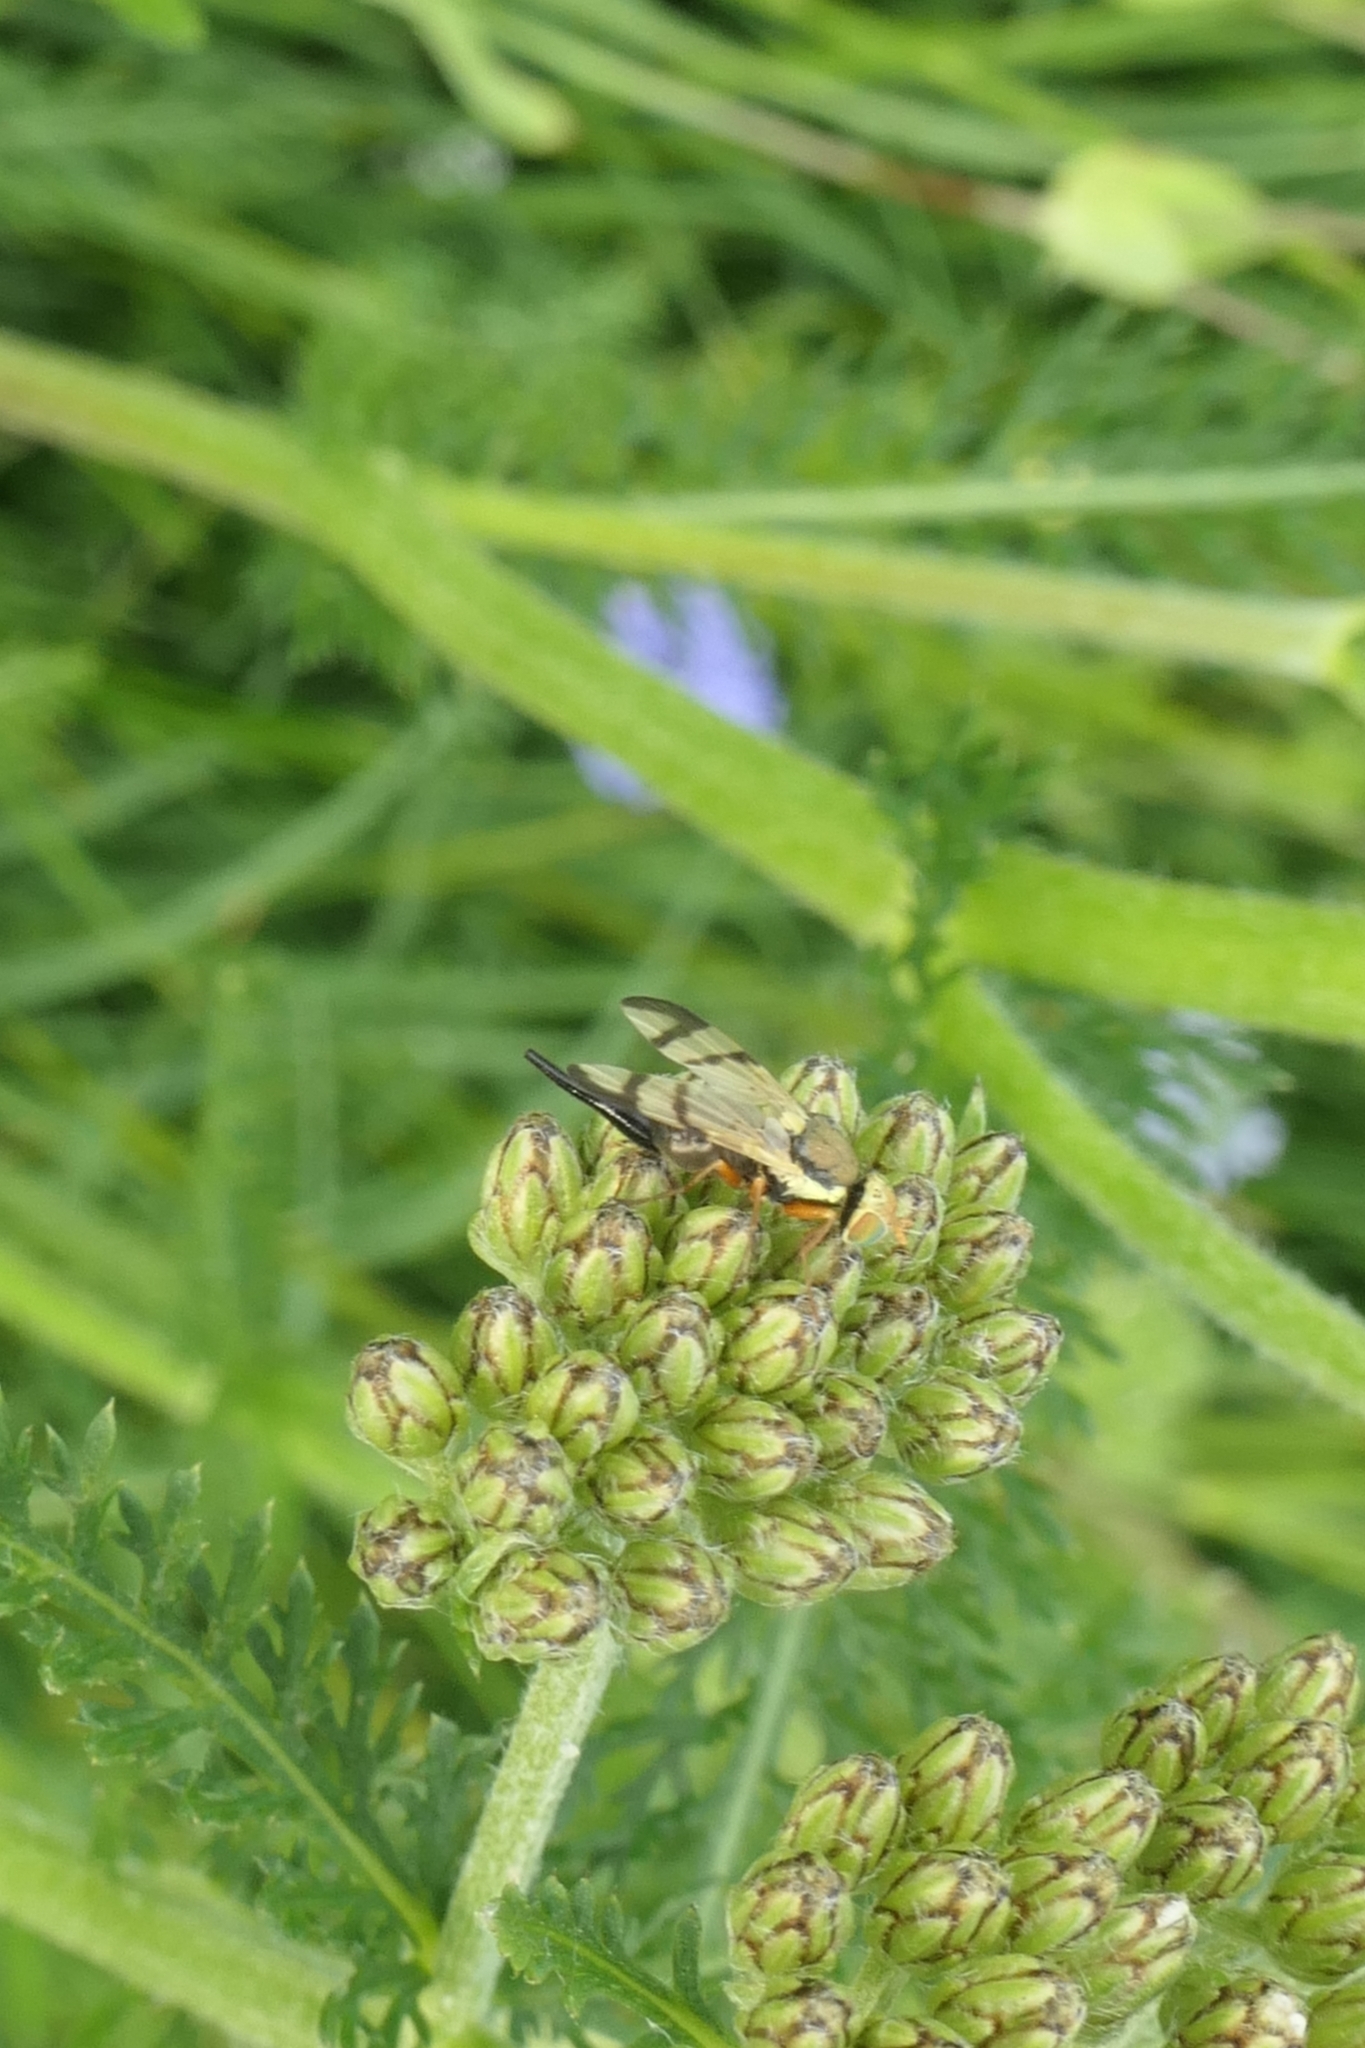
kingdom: Animalia
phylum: Arthropoda
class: Insecta
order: Diptera
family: Tephritidae
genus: Urophora
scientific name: Urophora stylata
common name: Fruit fly
